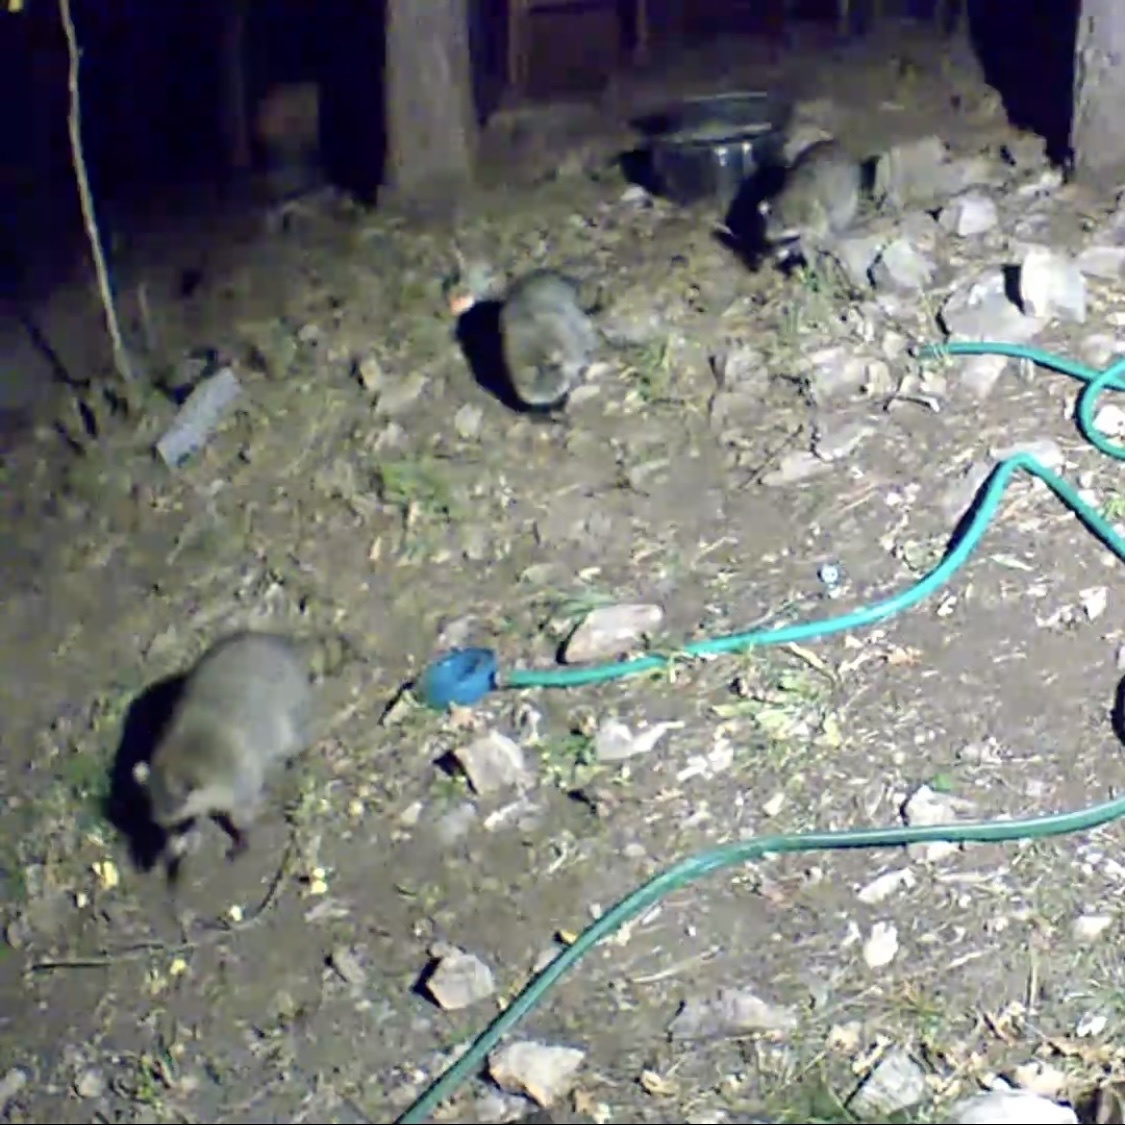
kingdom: Animalia
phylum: Chordata
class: Mammalia
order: Carnivora
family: Procyonidae
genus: Procyon
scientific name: Procyon lotor
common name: Raccoon
